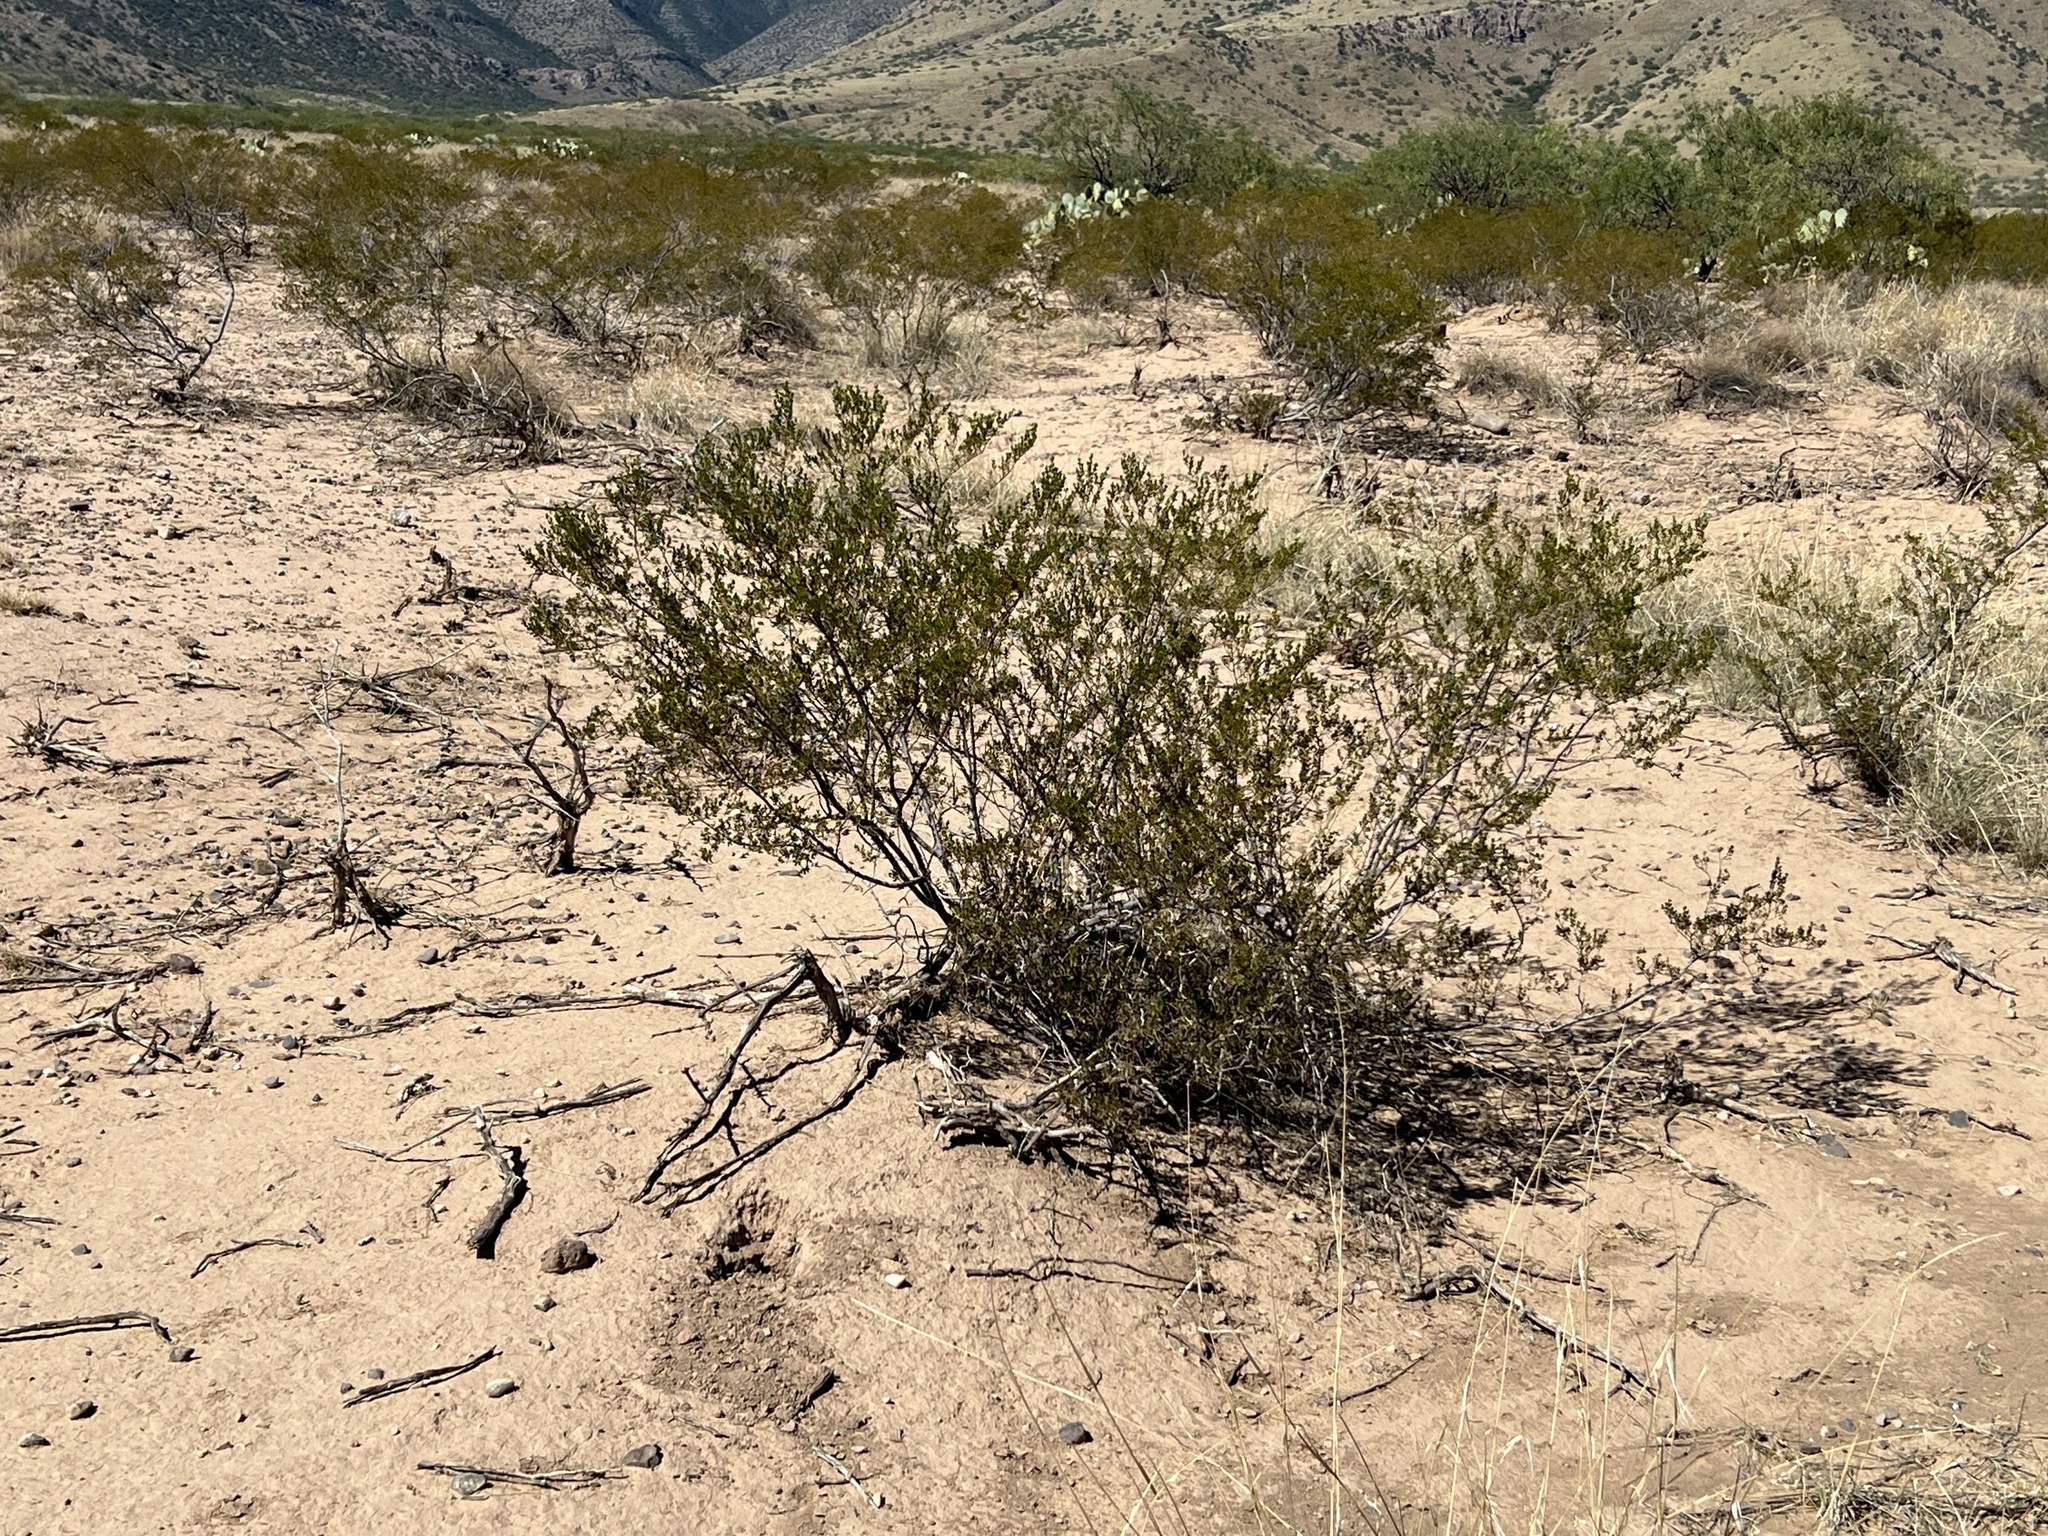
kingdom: Plantae
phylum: Tracheophyta
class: Magnoliopsida
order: Zygophyllales
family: Zygophyllaceae
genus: Larrea
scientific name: Larrea tridentata
